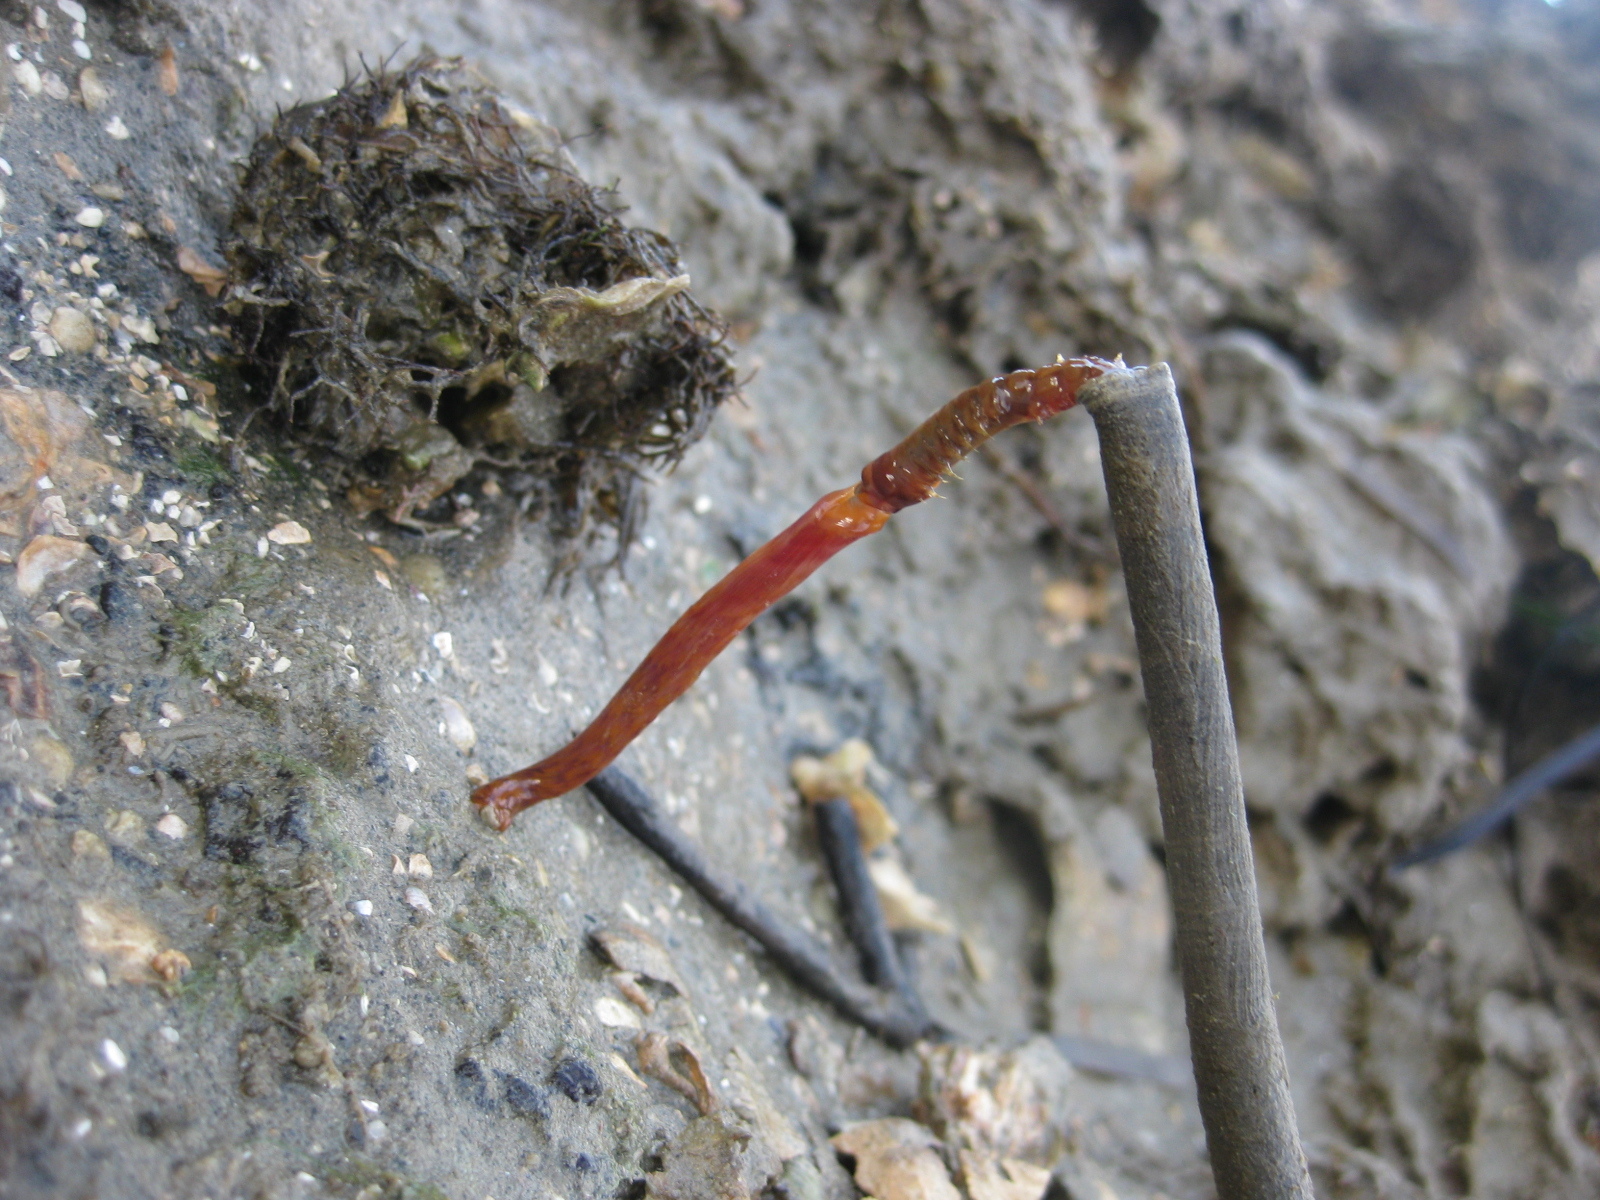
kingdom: Animalia
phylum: Annelida
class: Polychaeta
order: Sabellida
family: Sabellidae
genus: Sabella
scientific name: Sabella spallanzanii
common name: Feather duster worm
